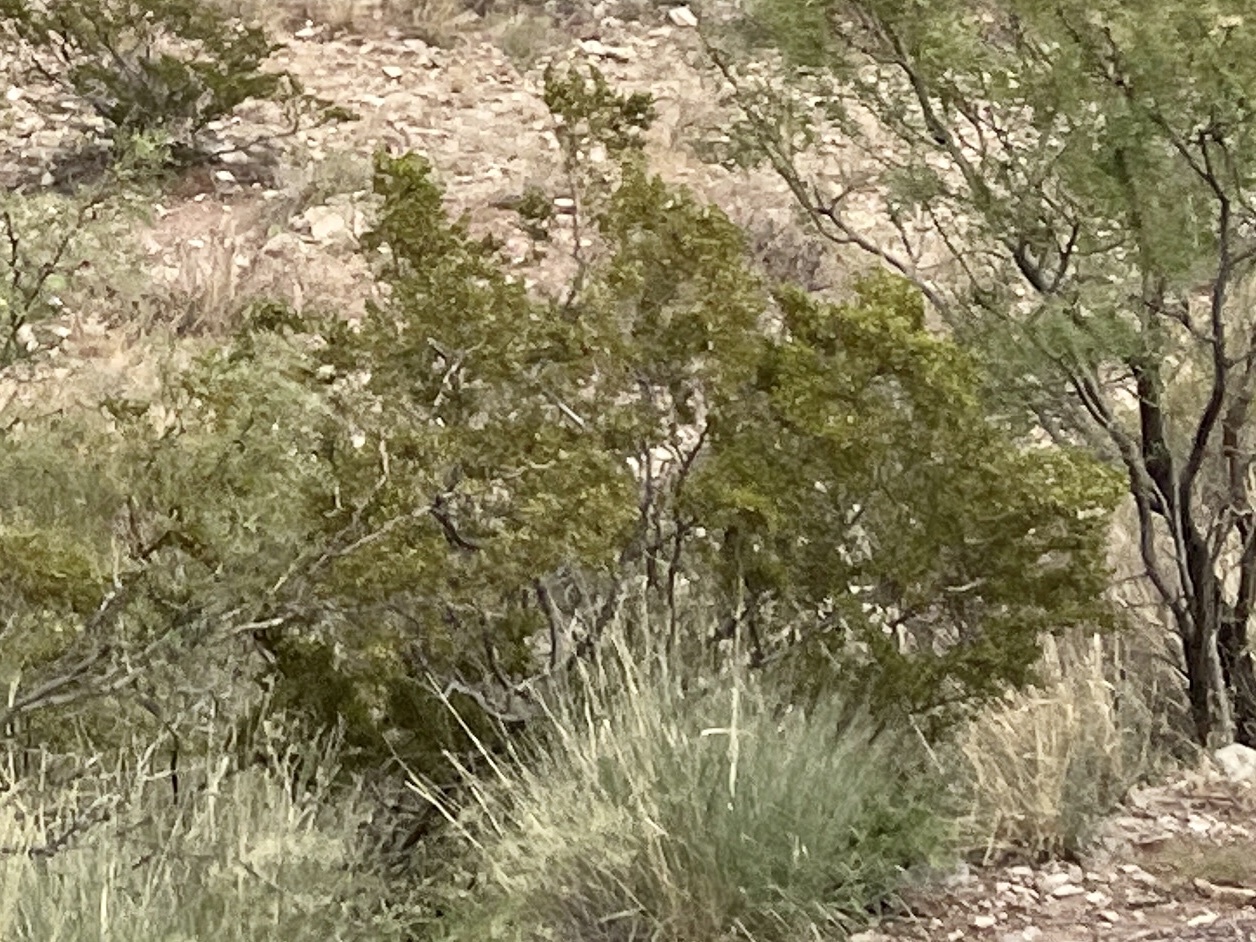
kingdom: Plantae
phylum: Tracheophyta
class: Magnoliopsida
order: Zygophyllales
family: Zygophyllaceae
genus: Larrea
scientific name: Larrea tridentata
